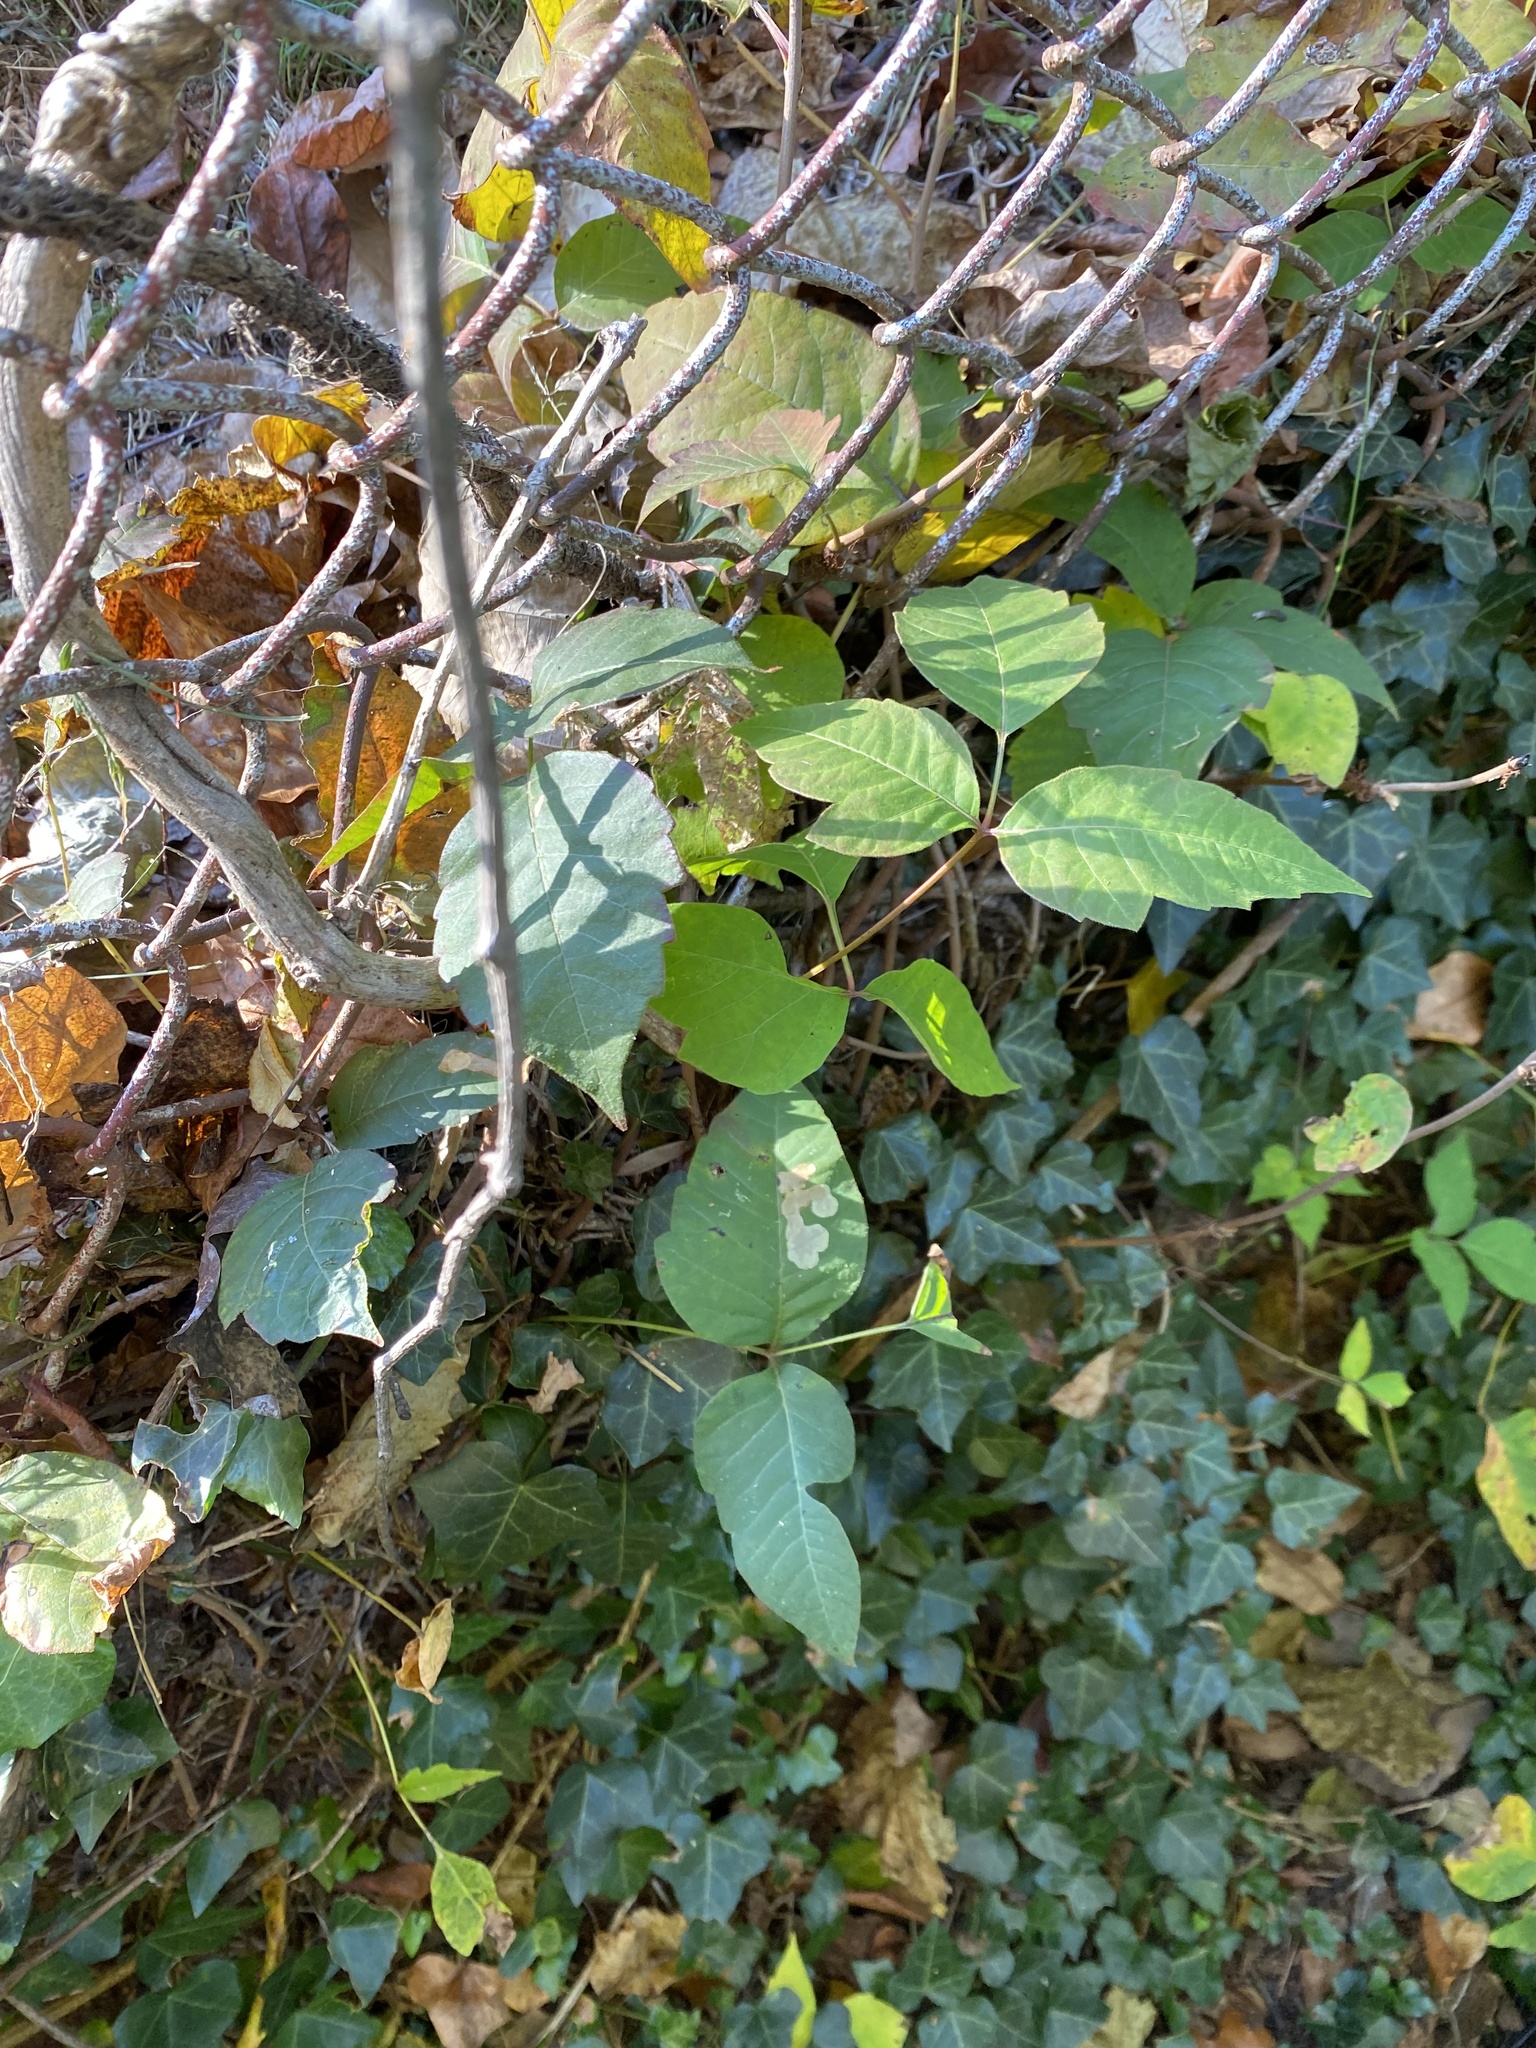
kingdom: Plantae
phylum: Tracheophyta
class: Magnoliopsida
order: Sapindales
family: Anacardiaceae
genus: Toxicodendron
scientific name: Toxicodendron radicans
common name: Poison ivy
